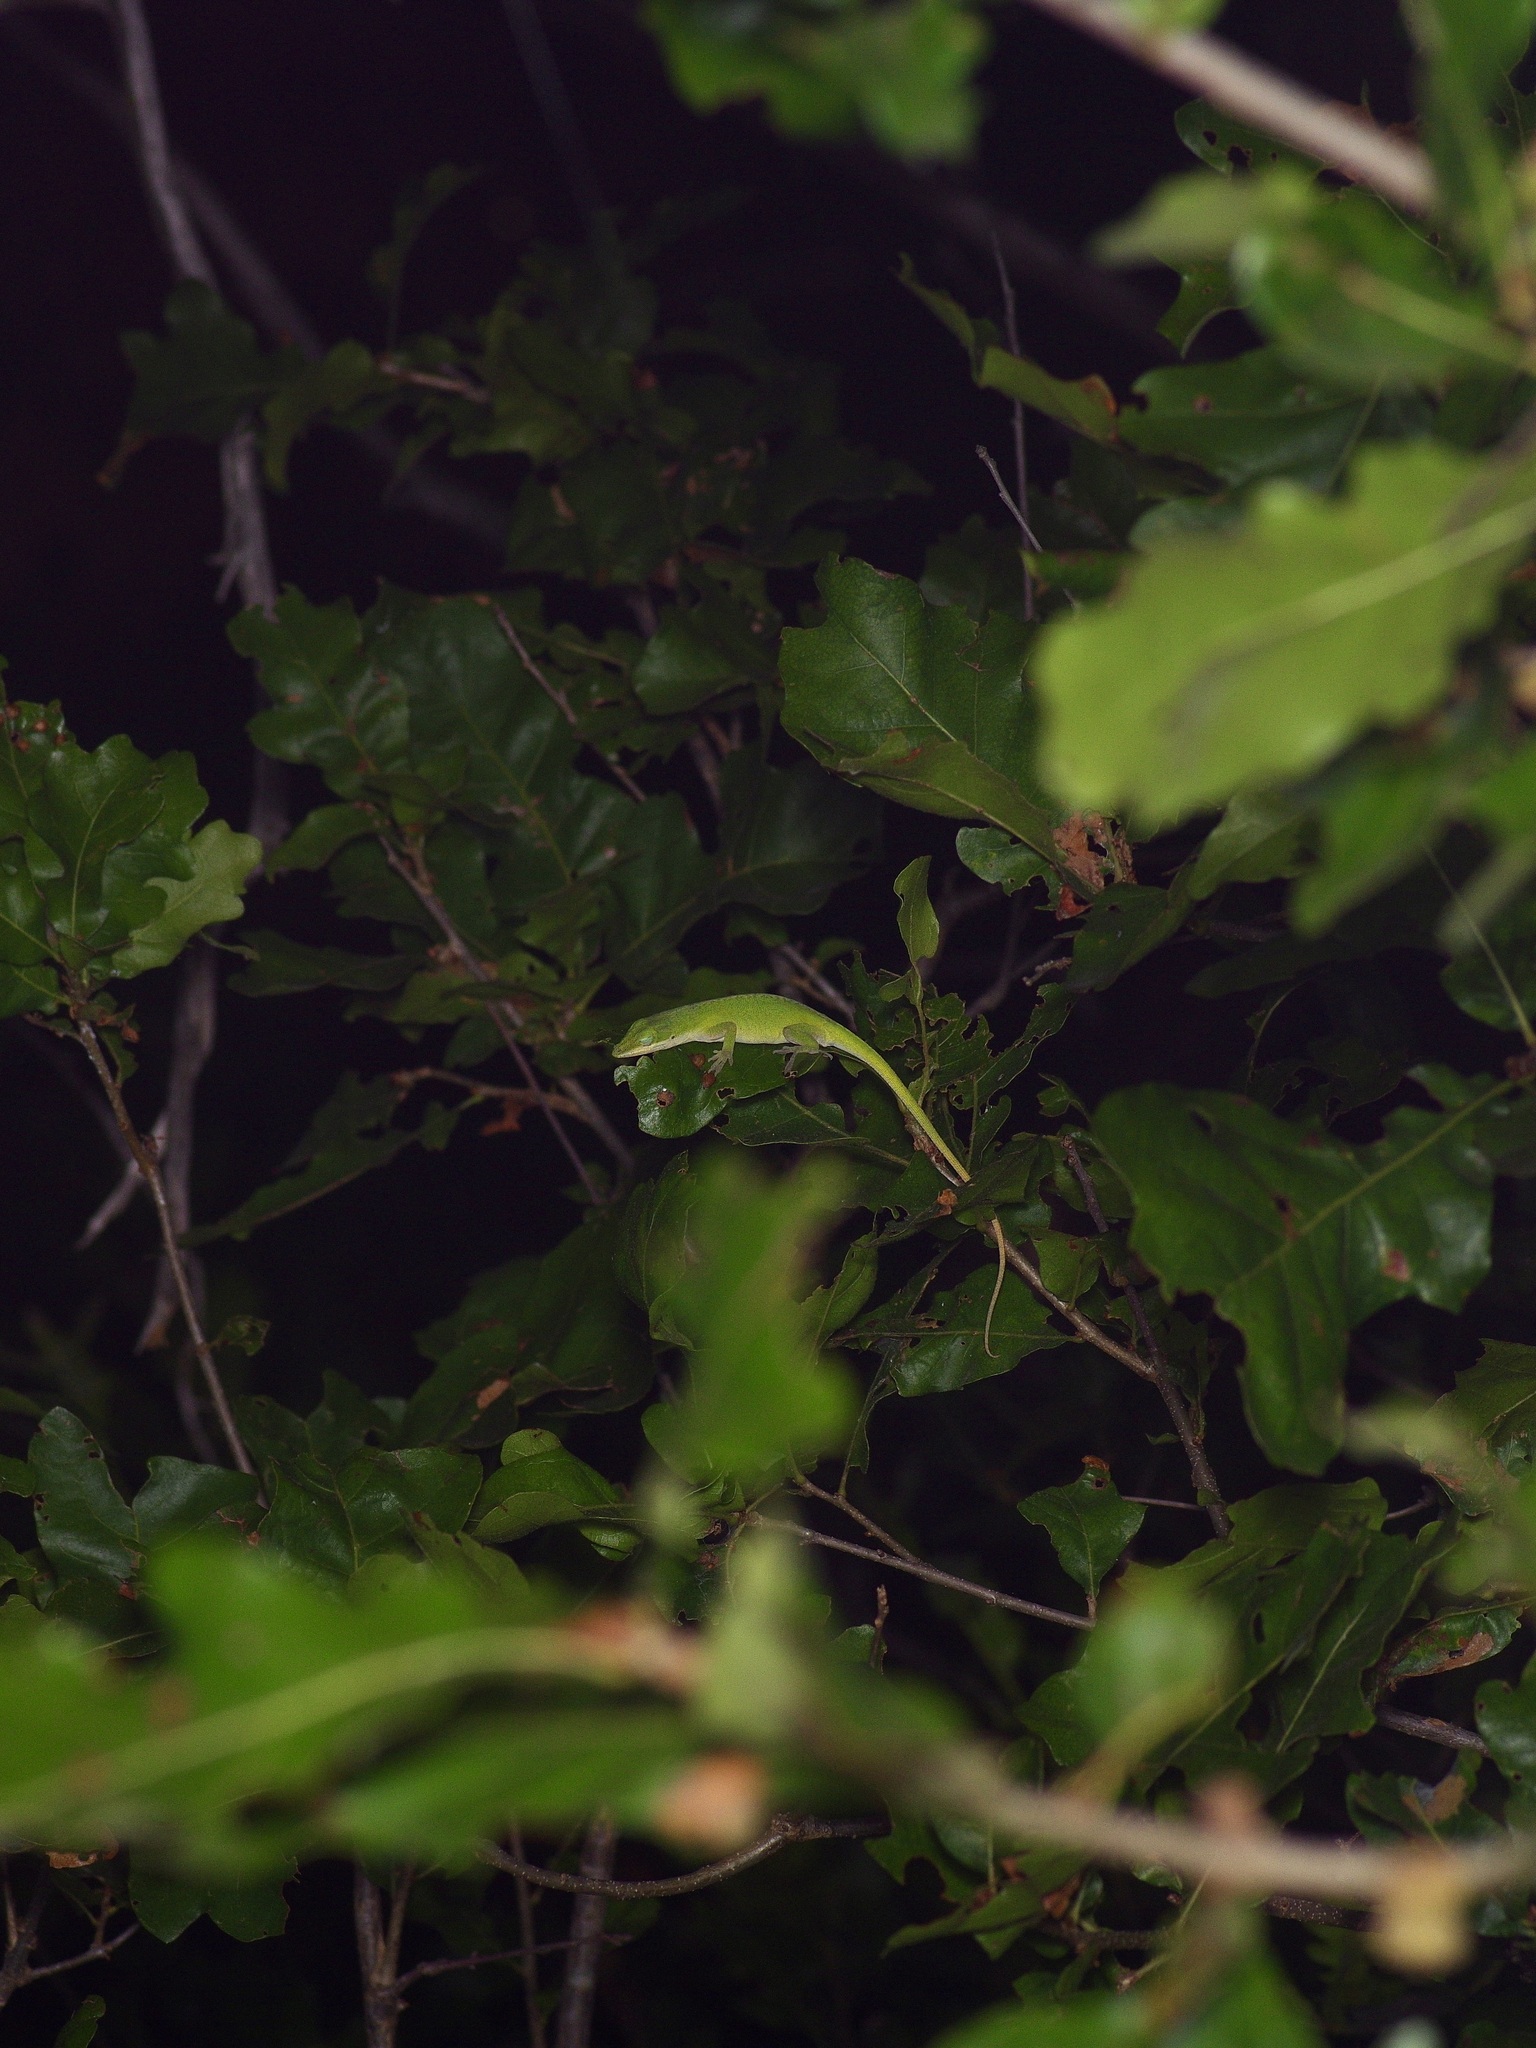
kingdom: Animalia
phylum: Chordata
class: Squamata
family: Dactyloidae
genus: Anolis
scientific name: Anolis carolinensis
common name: Green anole
